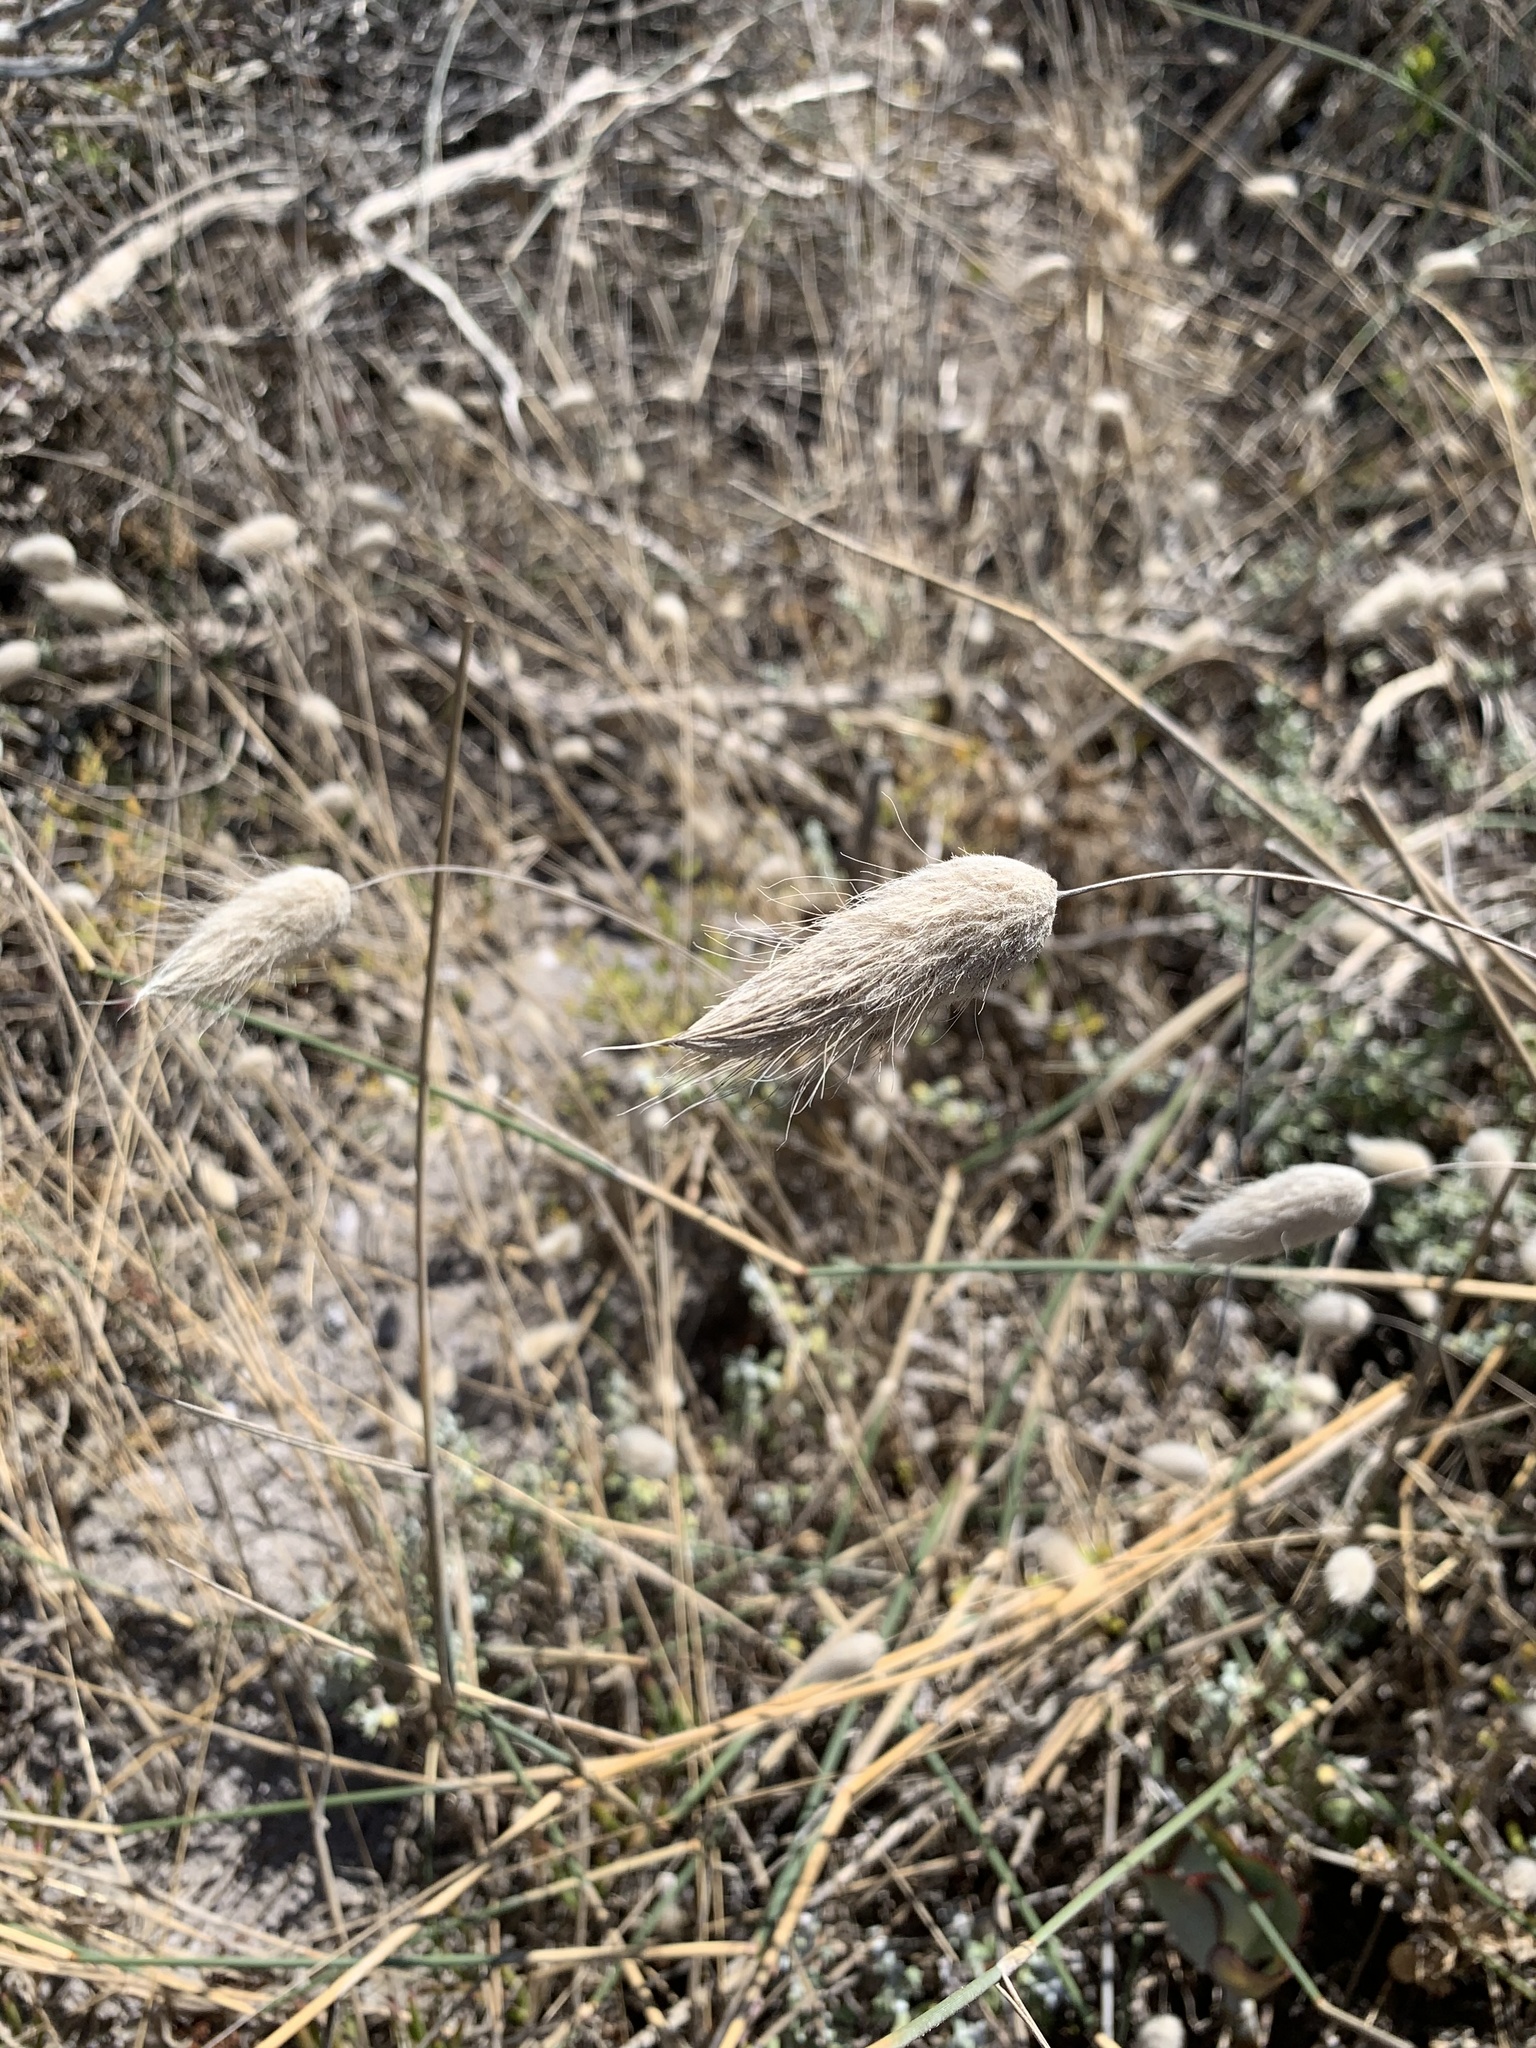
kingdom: Plantae
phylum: Tracheophyta
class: Liliopsida
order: Poales
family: Poaceae
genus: Lagurus
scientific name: Lagurus ovatus
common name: Hare's-tail
